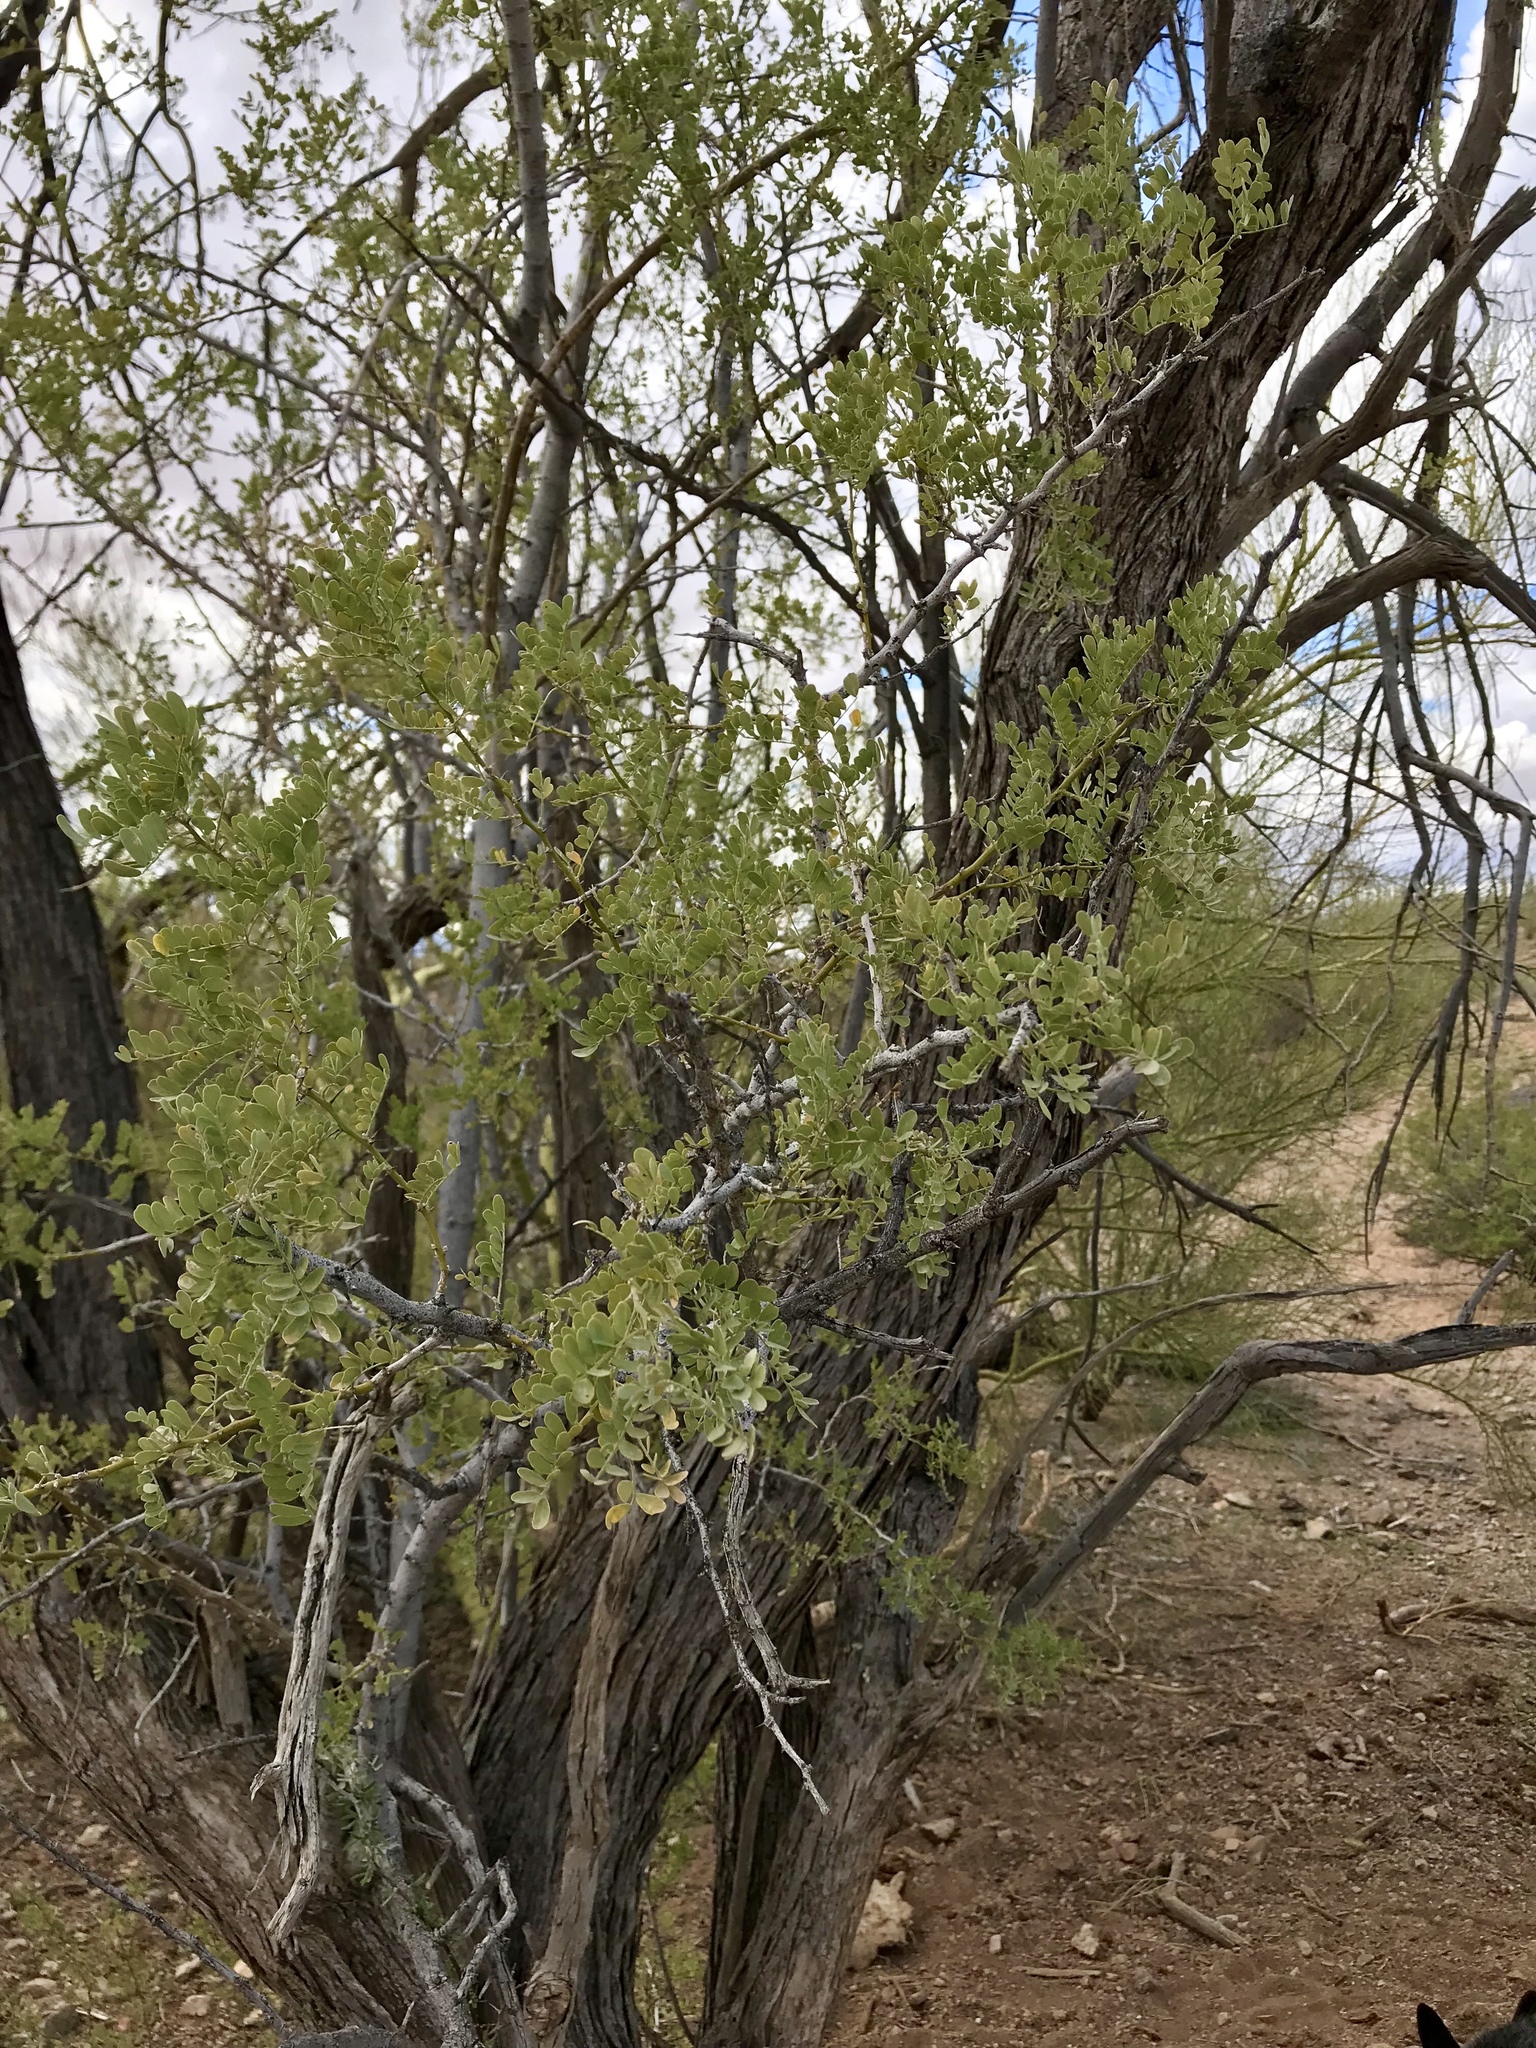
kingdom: Plantae
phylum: Tracheophyta
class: Magnoliopsida
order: Fabales
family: Fabaceae
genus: Olneya
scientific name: Olneya tesota
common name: Desert ironwood
